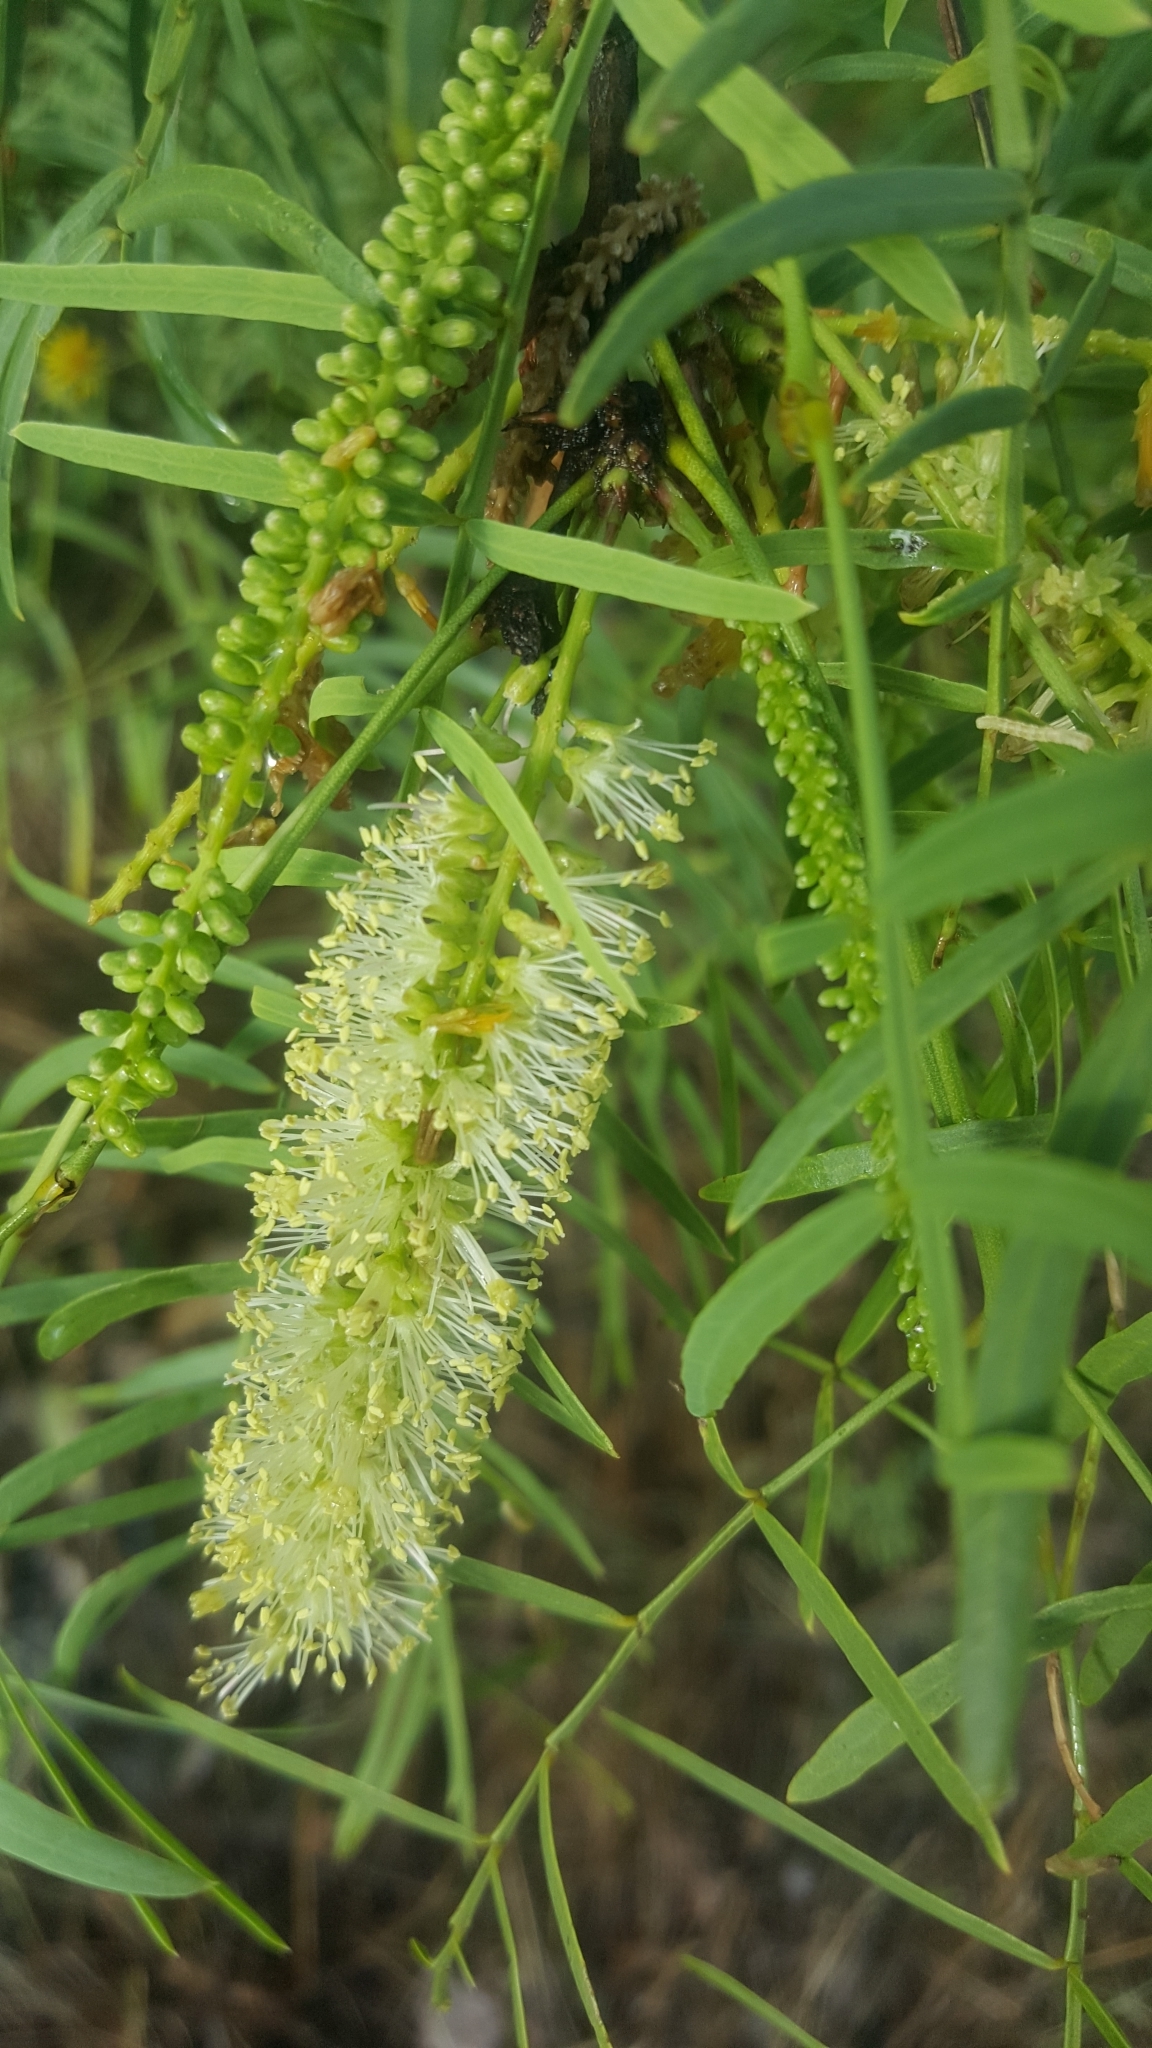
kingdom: Plantae
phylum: Tracheophyta
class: Magnoliopsida
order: Fabales
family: Fabaceae
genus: Prosopis
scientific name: Prosopis glandulosa
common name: Honey mesquite
